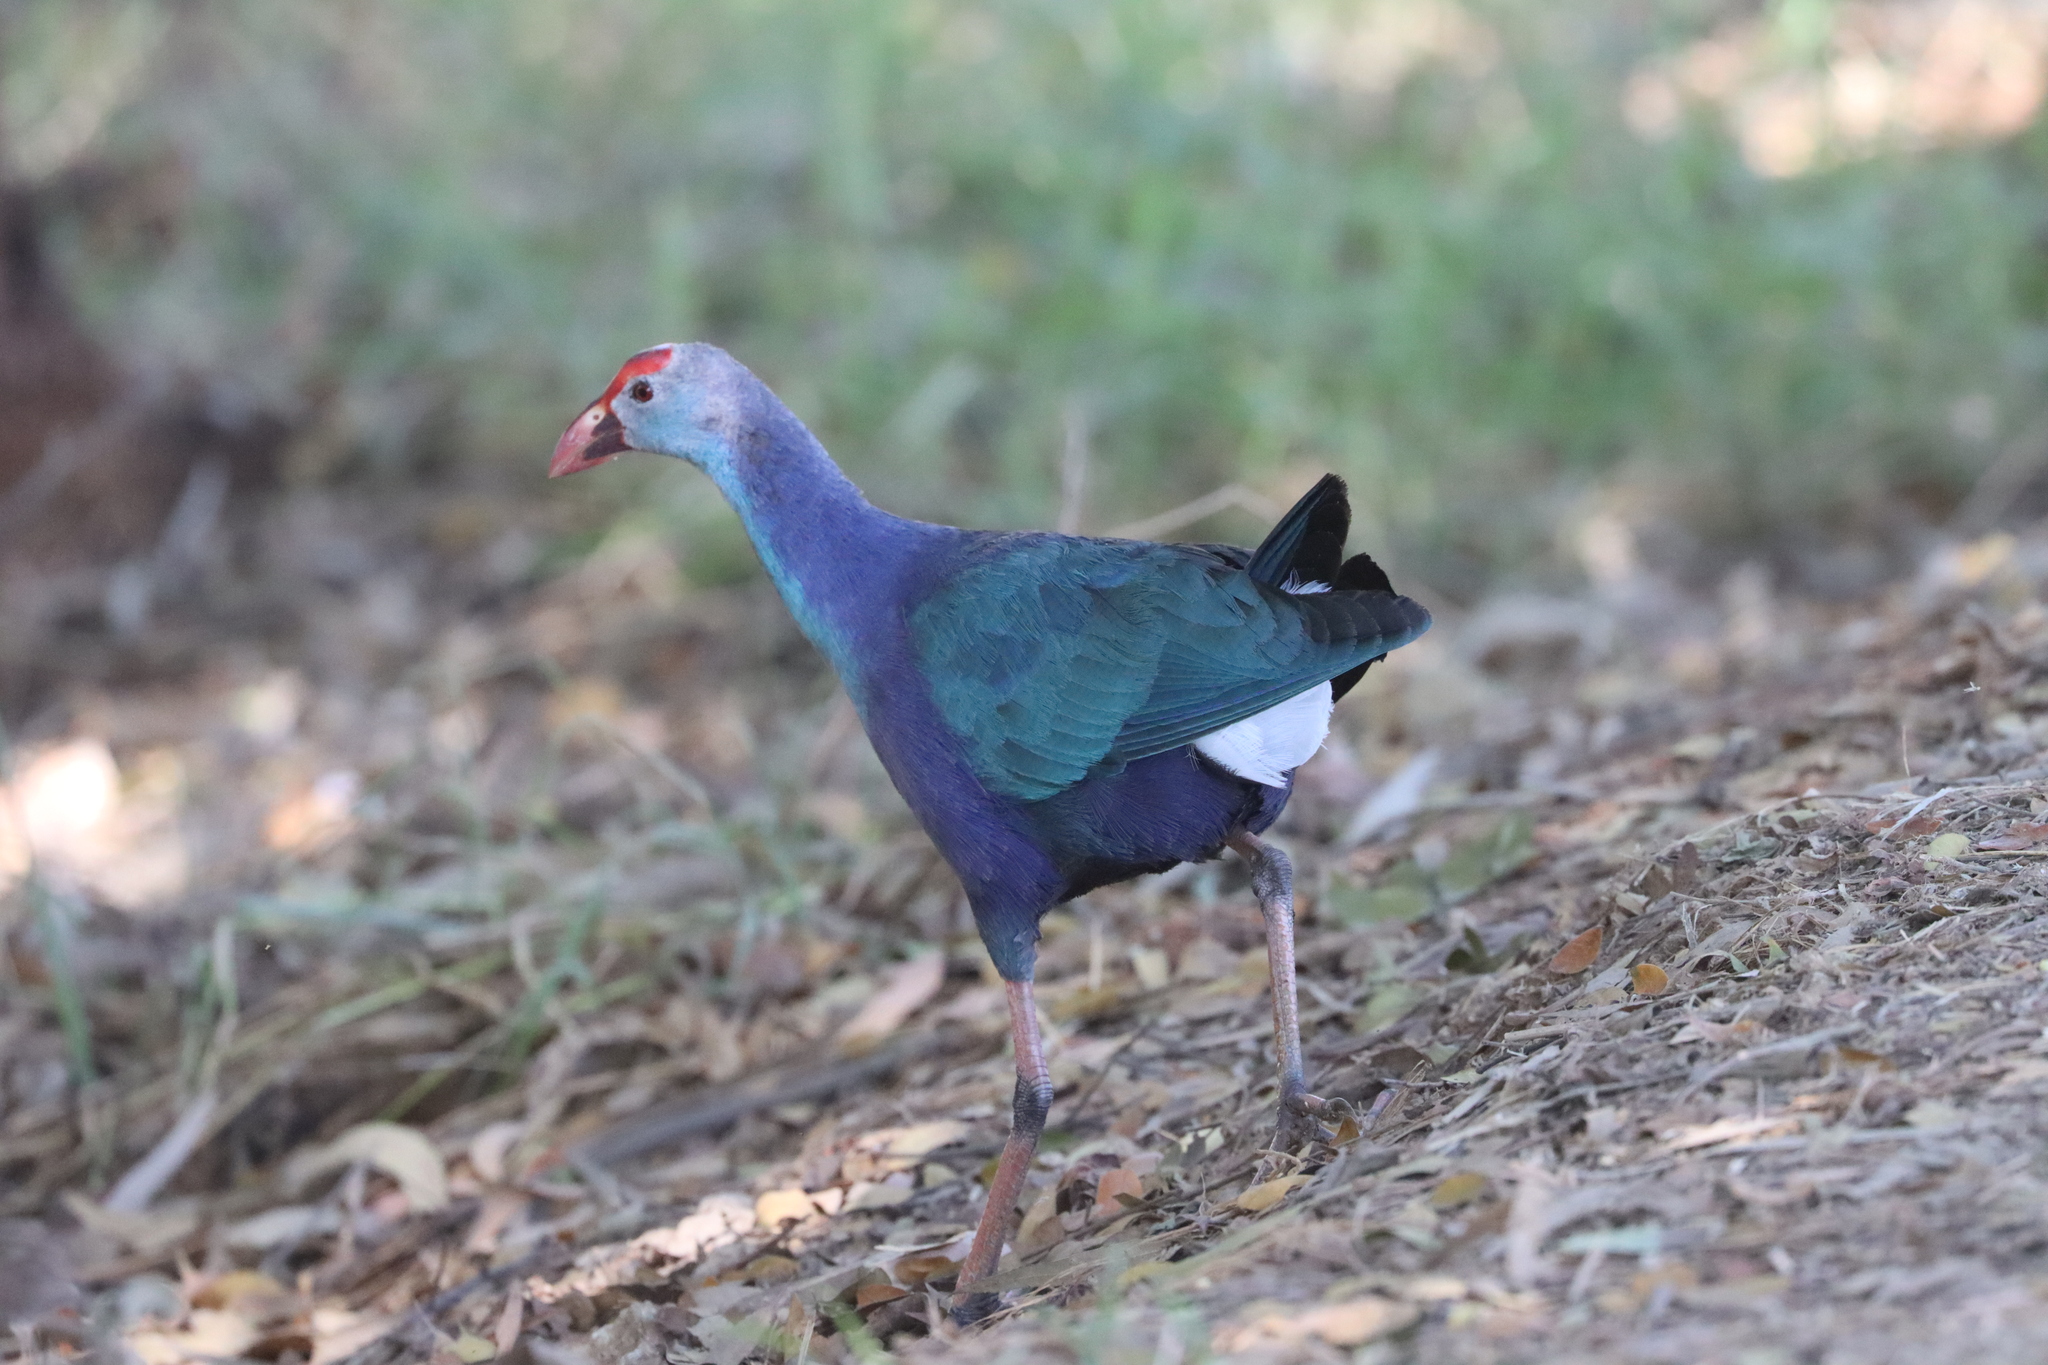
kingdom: Animalia
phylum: Chordata
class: Aves
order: Gruiformes
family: Rallidae
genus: Porphyrio
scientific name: Porphyrio porphyrio
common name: Purple swamphen
